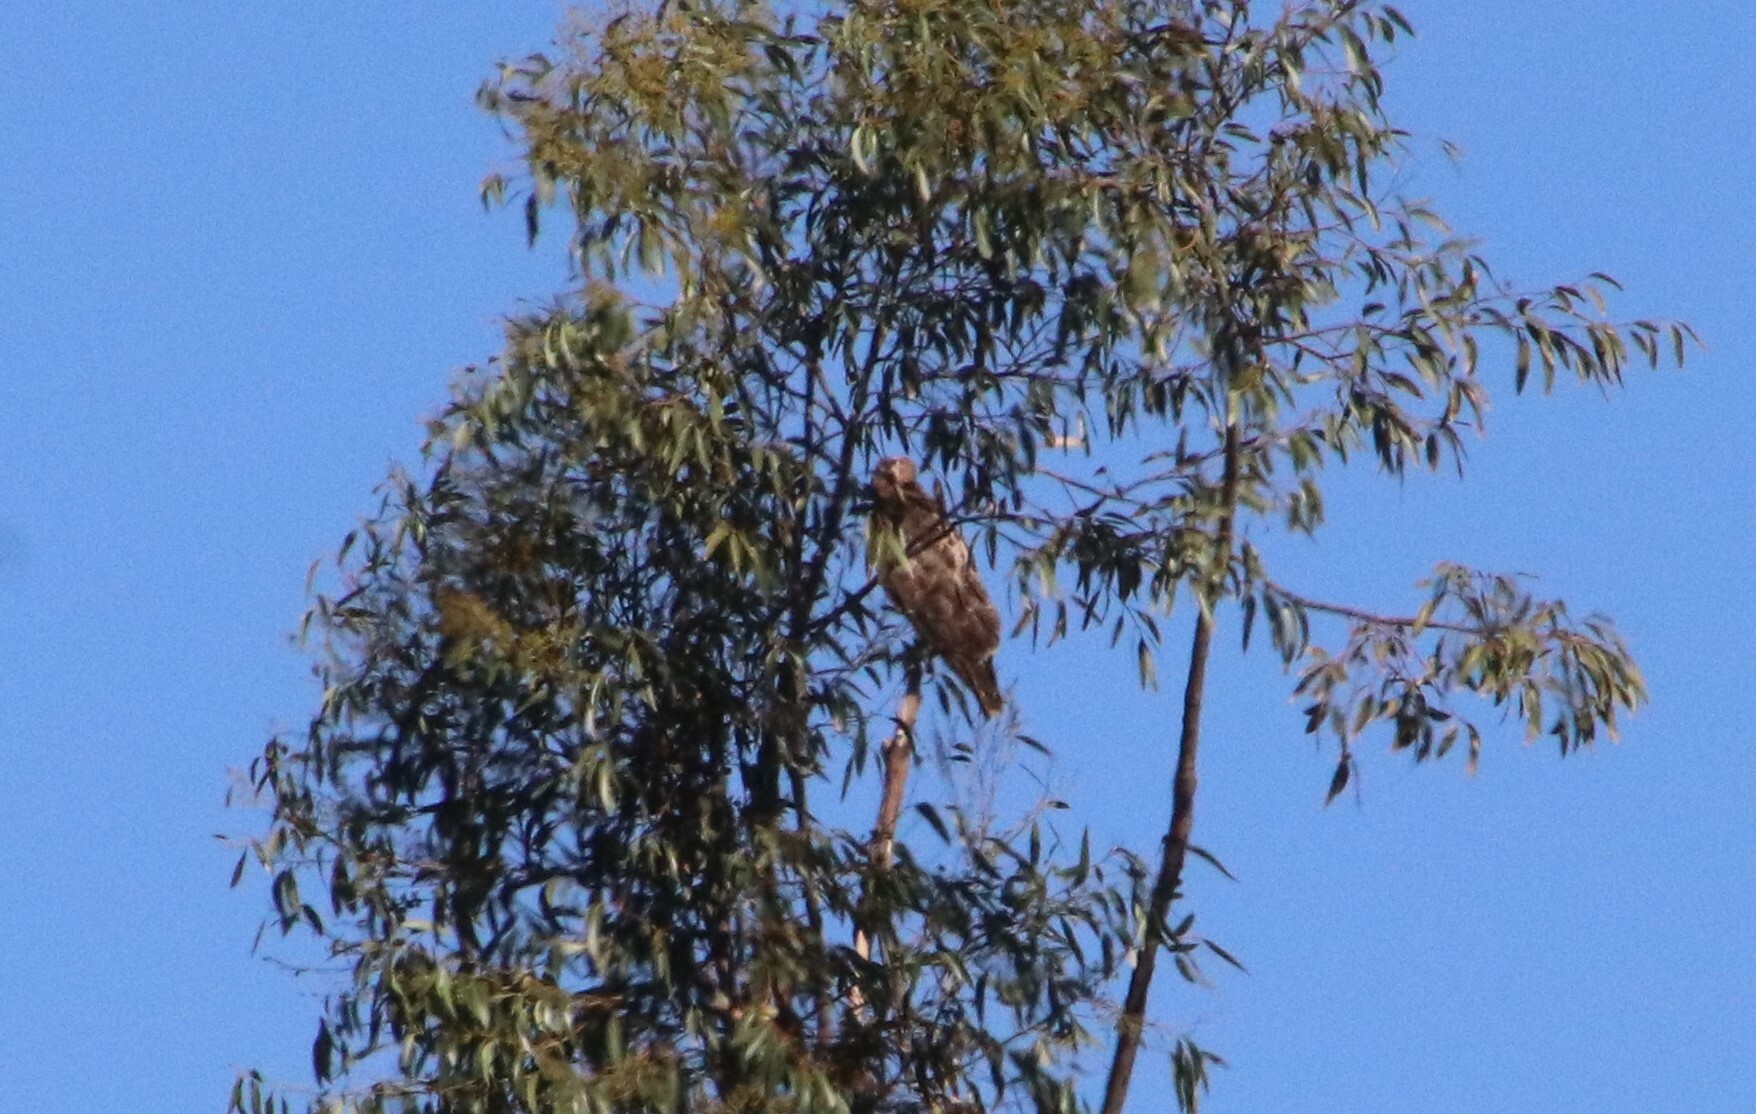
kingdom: Animalia
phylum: Chordata
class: Aves
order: Accipitriformes
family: Accipitridae
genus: Buteo
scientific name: Buteo jamaicensis
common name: Red-tailed hawk
